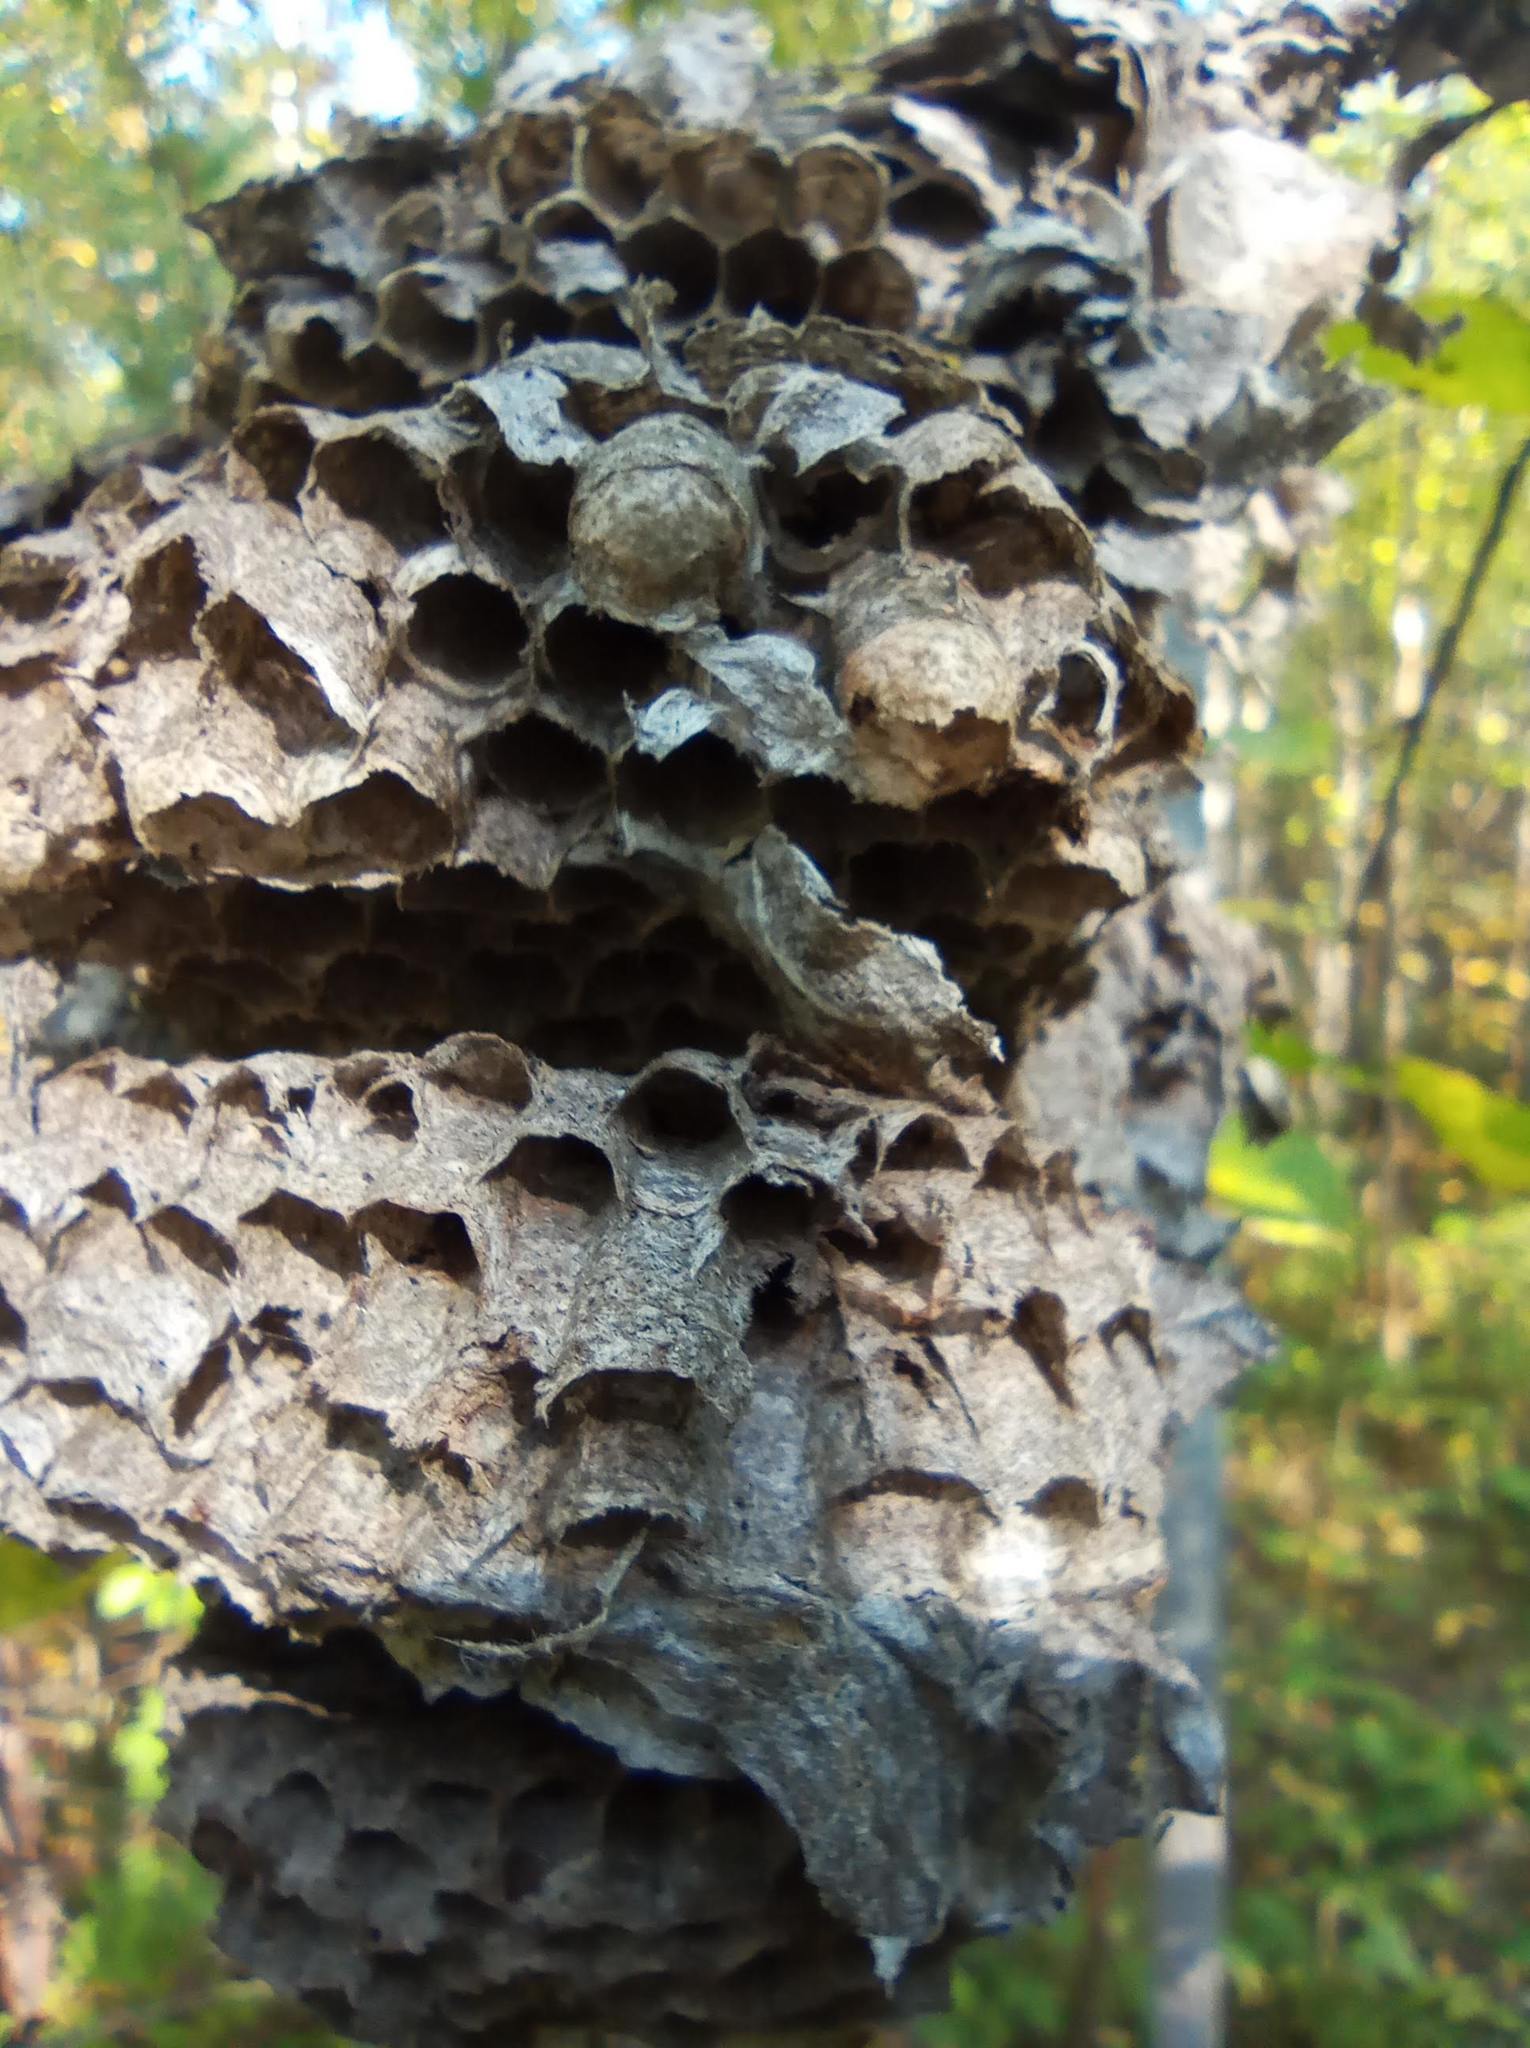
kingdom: Animalia
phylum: Arthropoda
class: Insecta
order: Hymenoptera
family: Vespidae
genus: Vespa
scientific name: Vespa crabro
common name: Hornet
